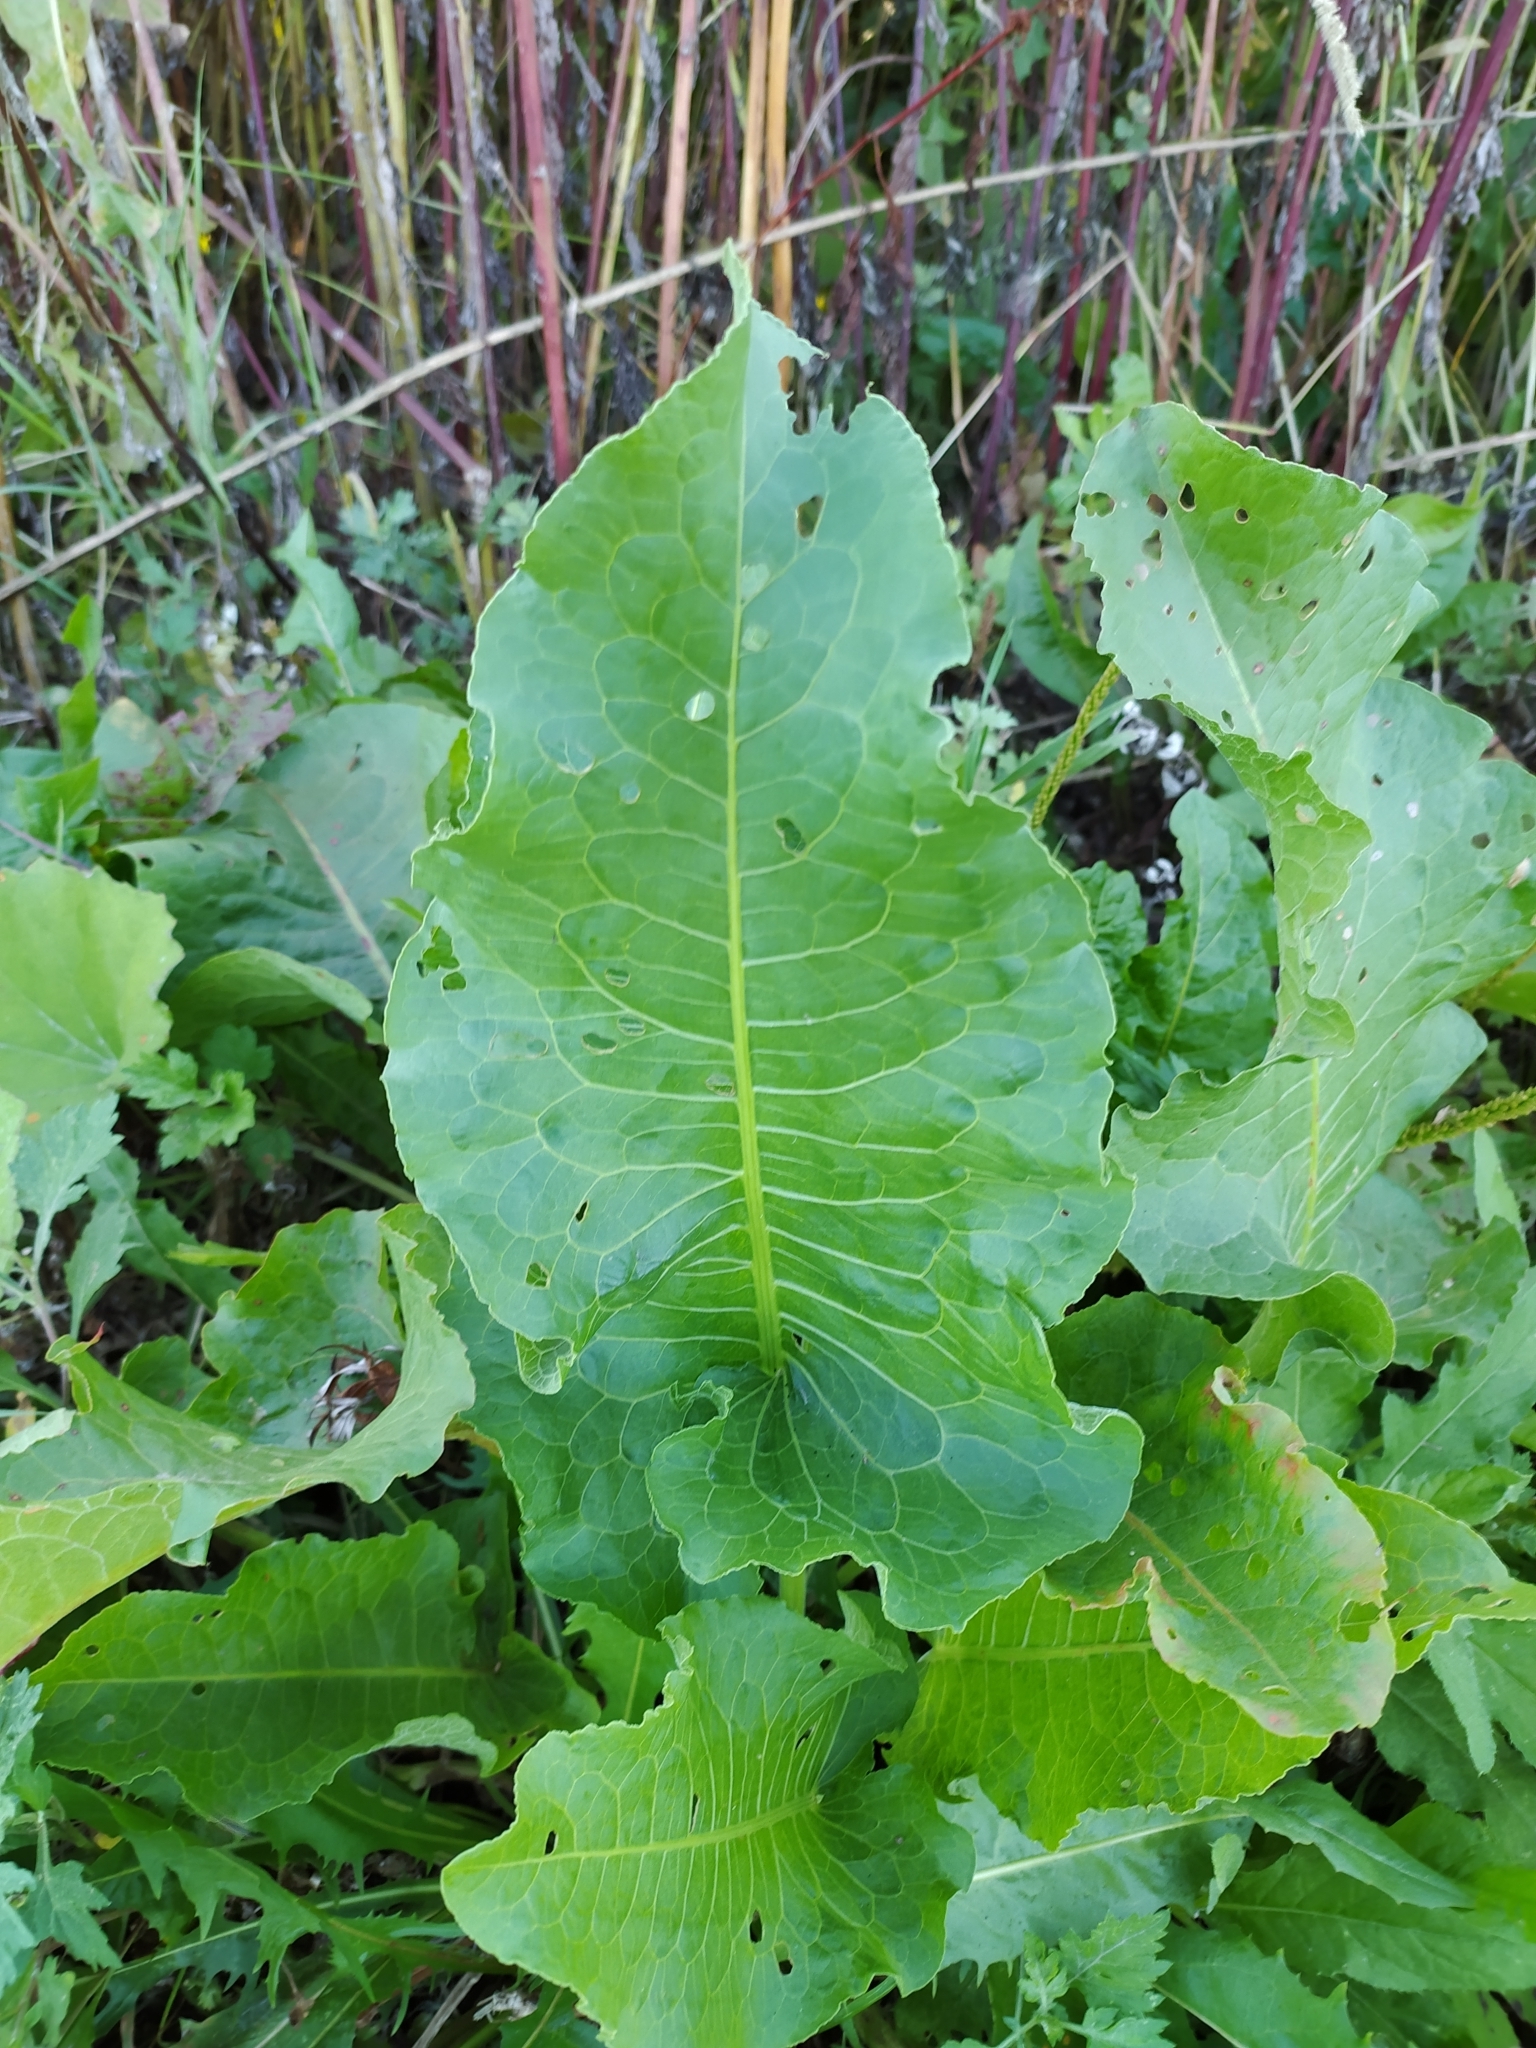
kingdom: Plantae
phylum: Tracheophyta
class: Magnoliopsida
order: Caryophyllales
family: Polygonaceae
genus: Rumex
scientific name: Rumex confertus
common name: Russian dock
